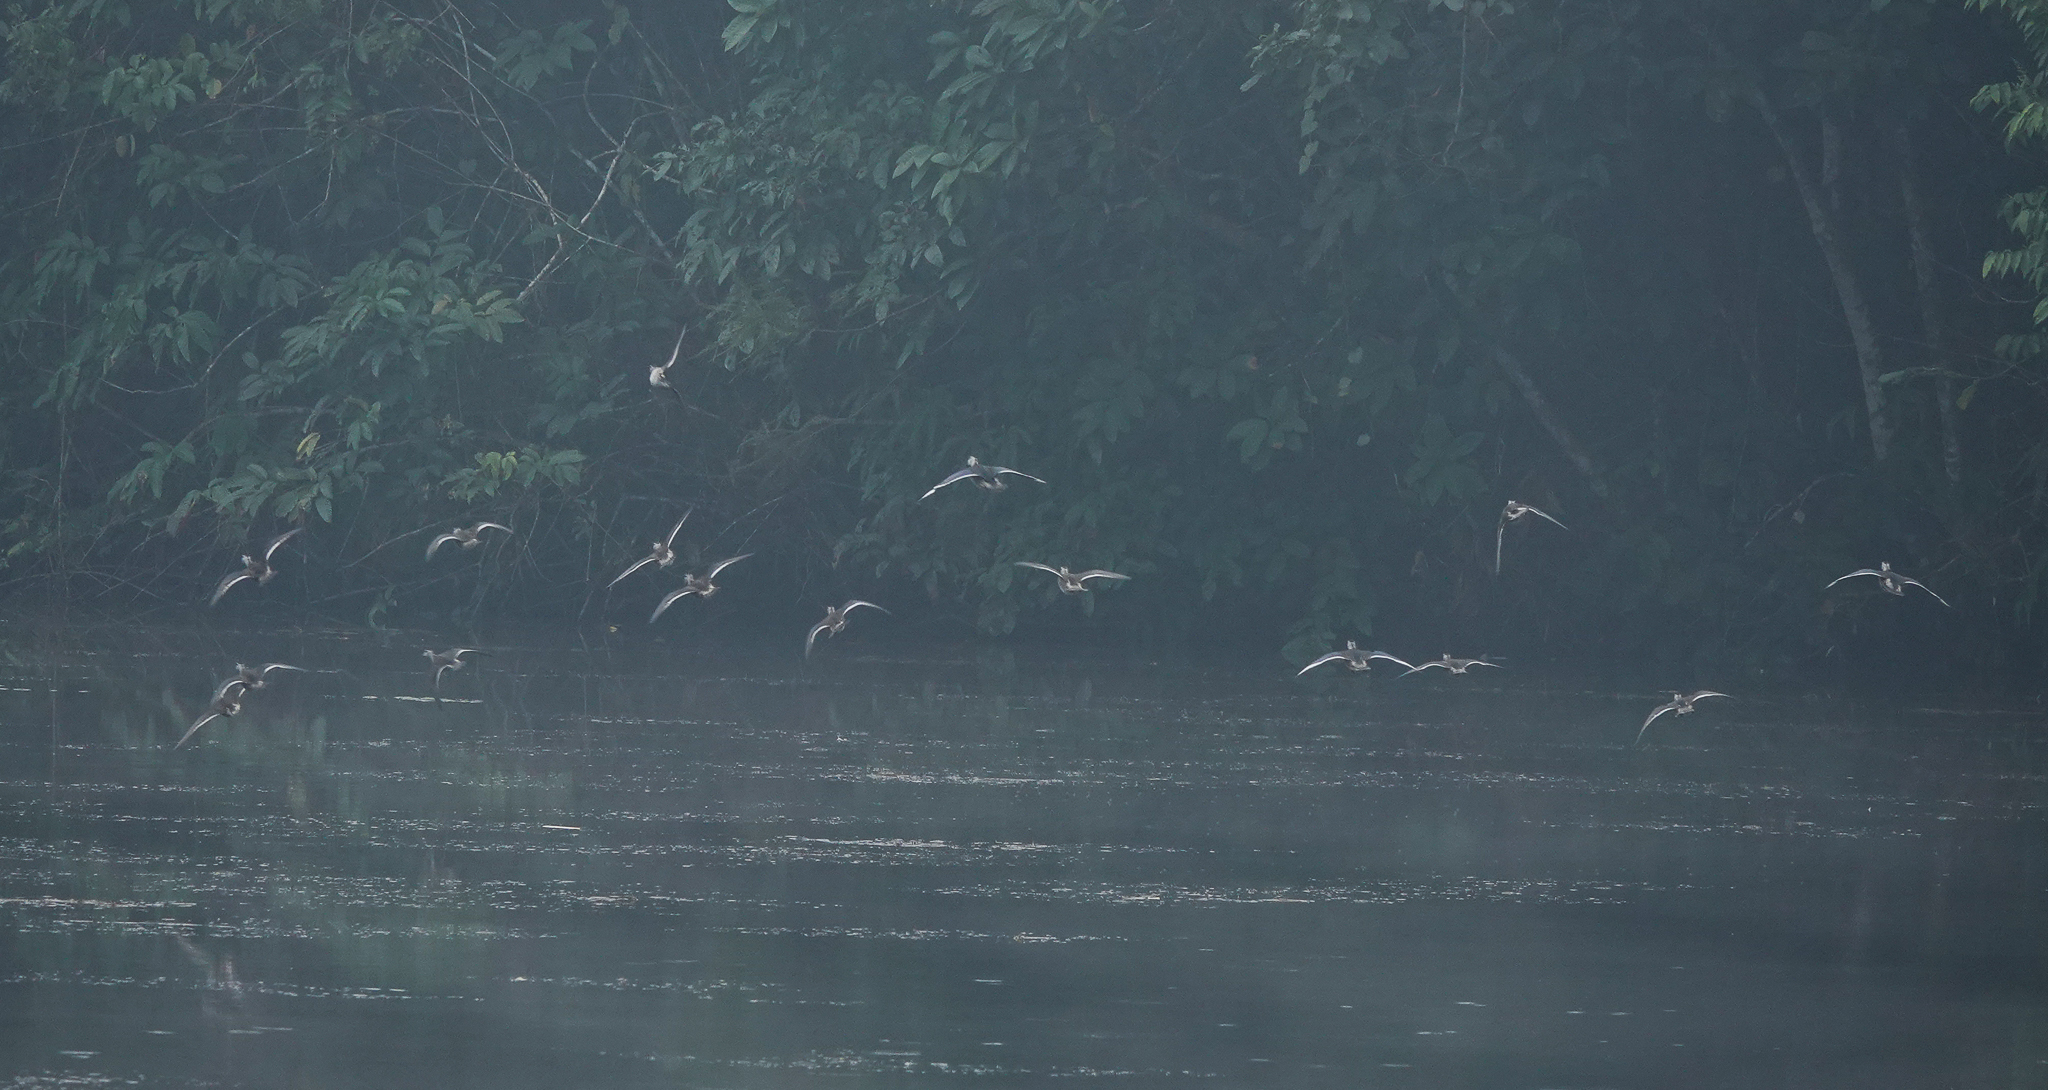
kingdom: Animalia
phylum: Chordata
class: Aves
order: Anseriformes
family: Anatidae
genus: Nettapus
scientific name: Nettapus coromandelianus
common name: Cotton pygmy-goose
